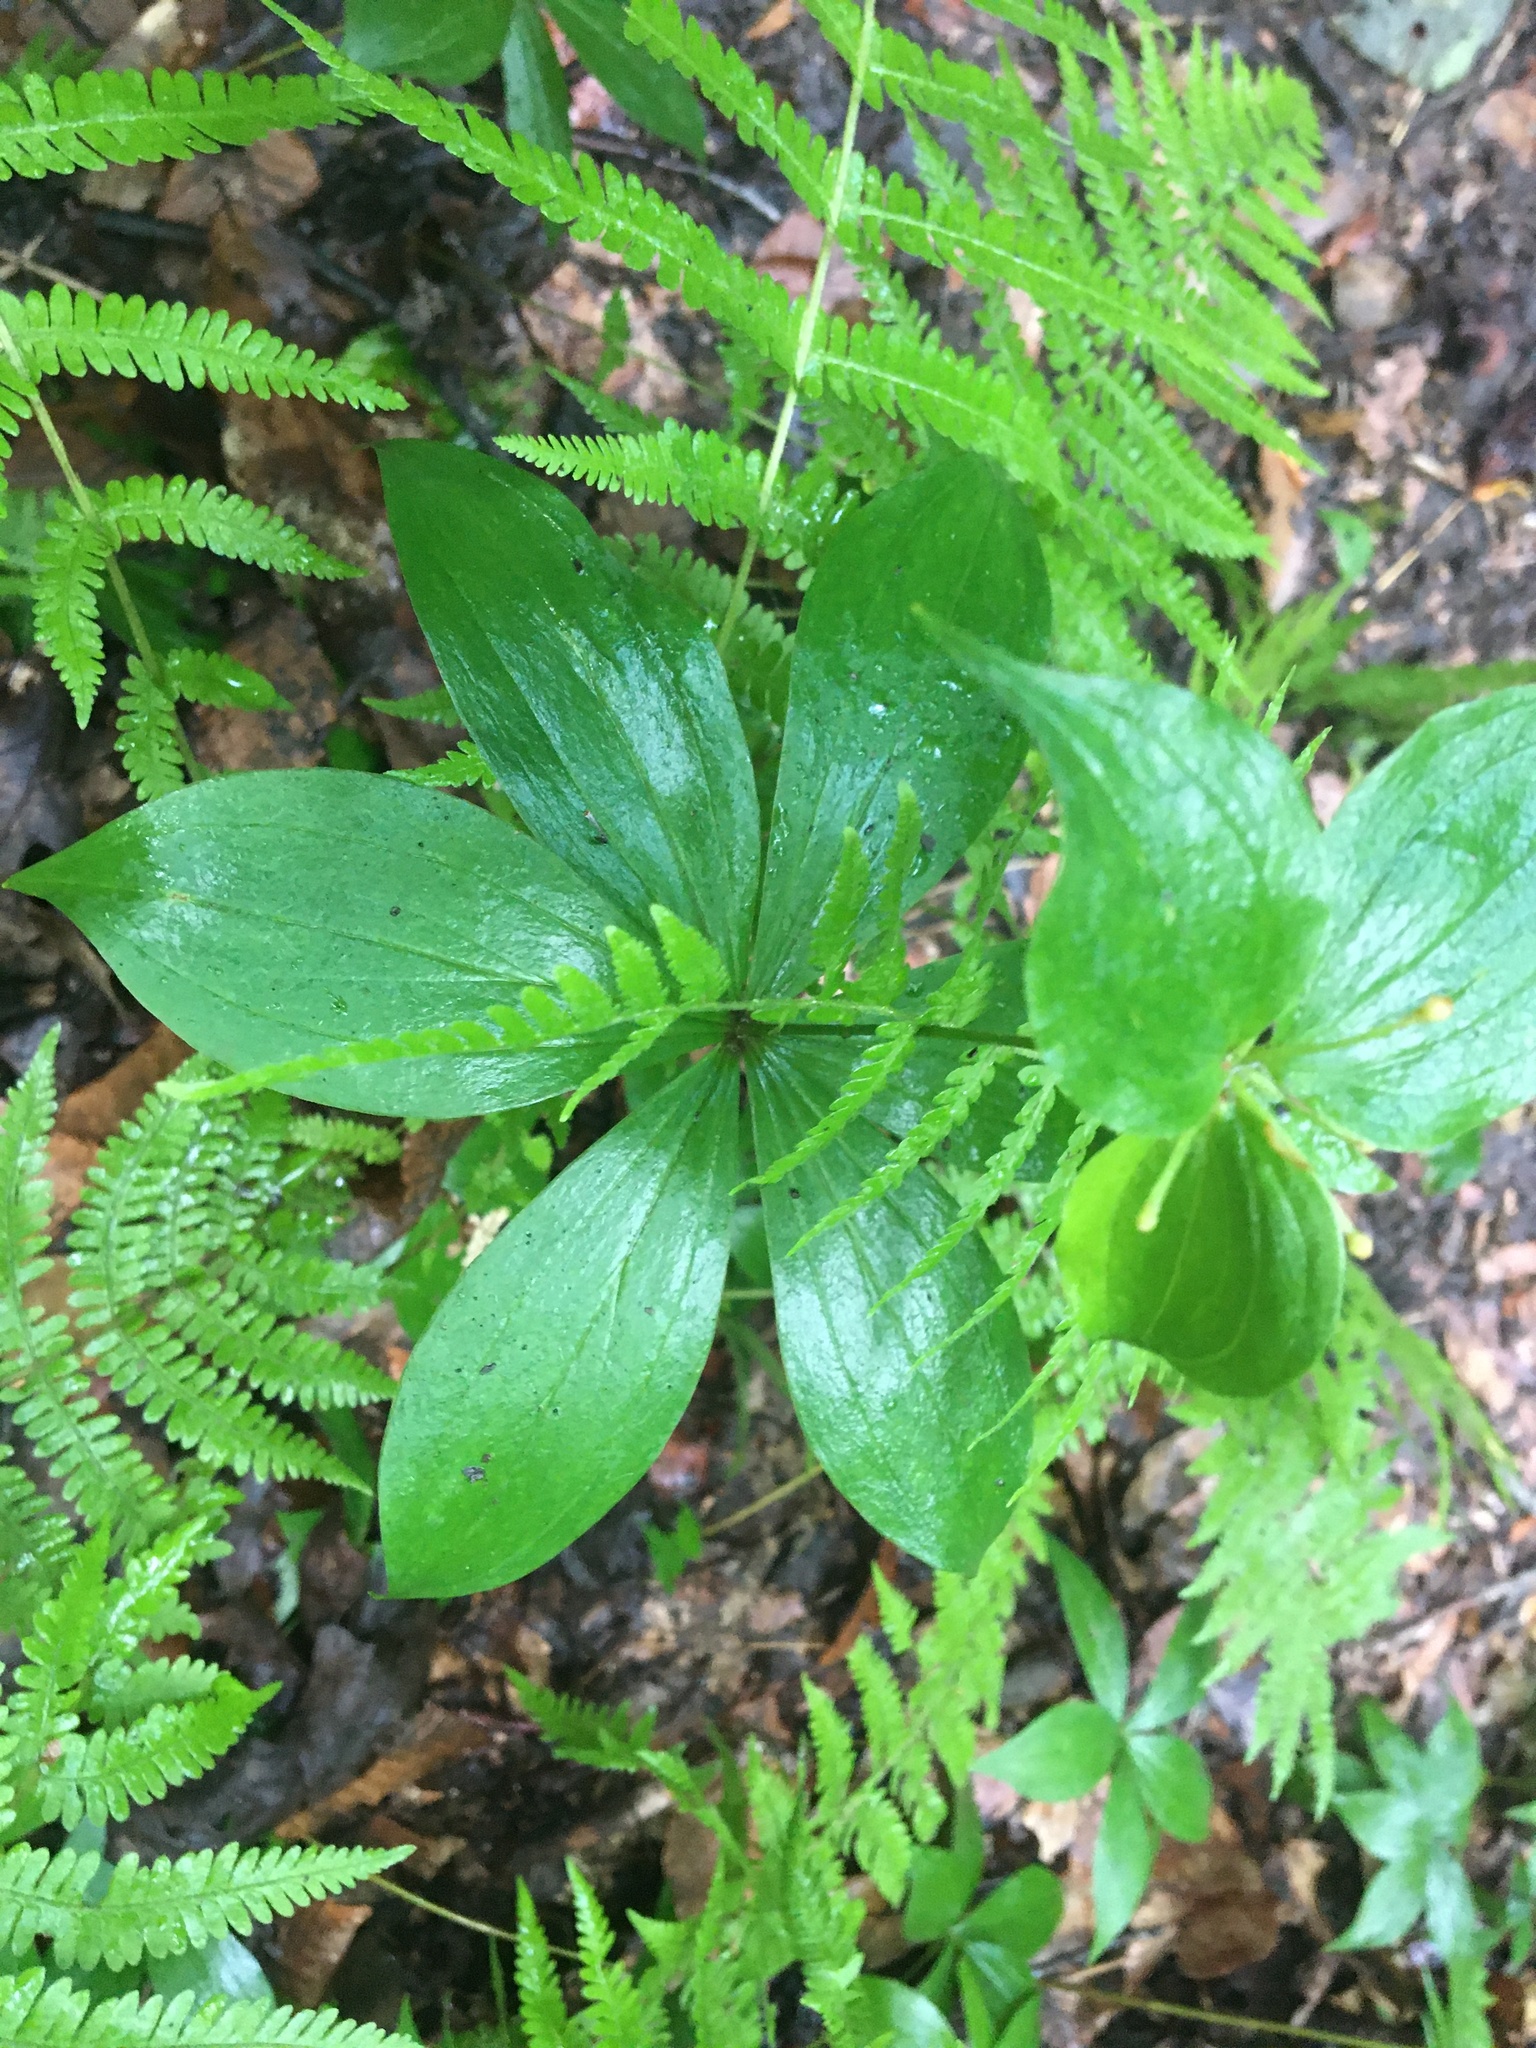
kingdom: Plantae
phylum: Tracheophyta
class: Liliopsida
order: Liliales
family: Liliaceae
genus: Medeola
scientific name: Medeola virginiana
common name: Indian cucumber-root
